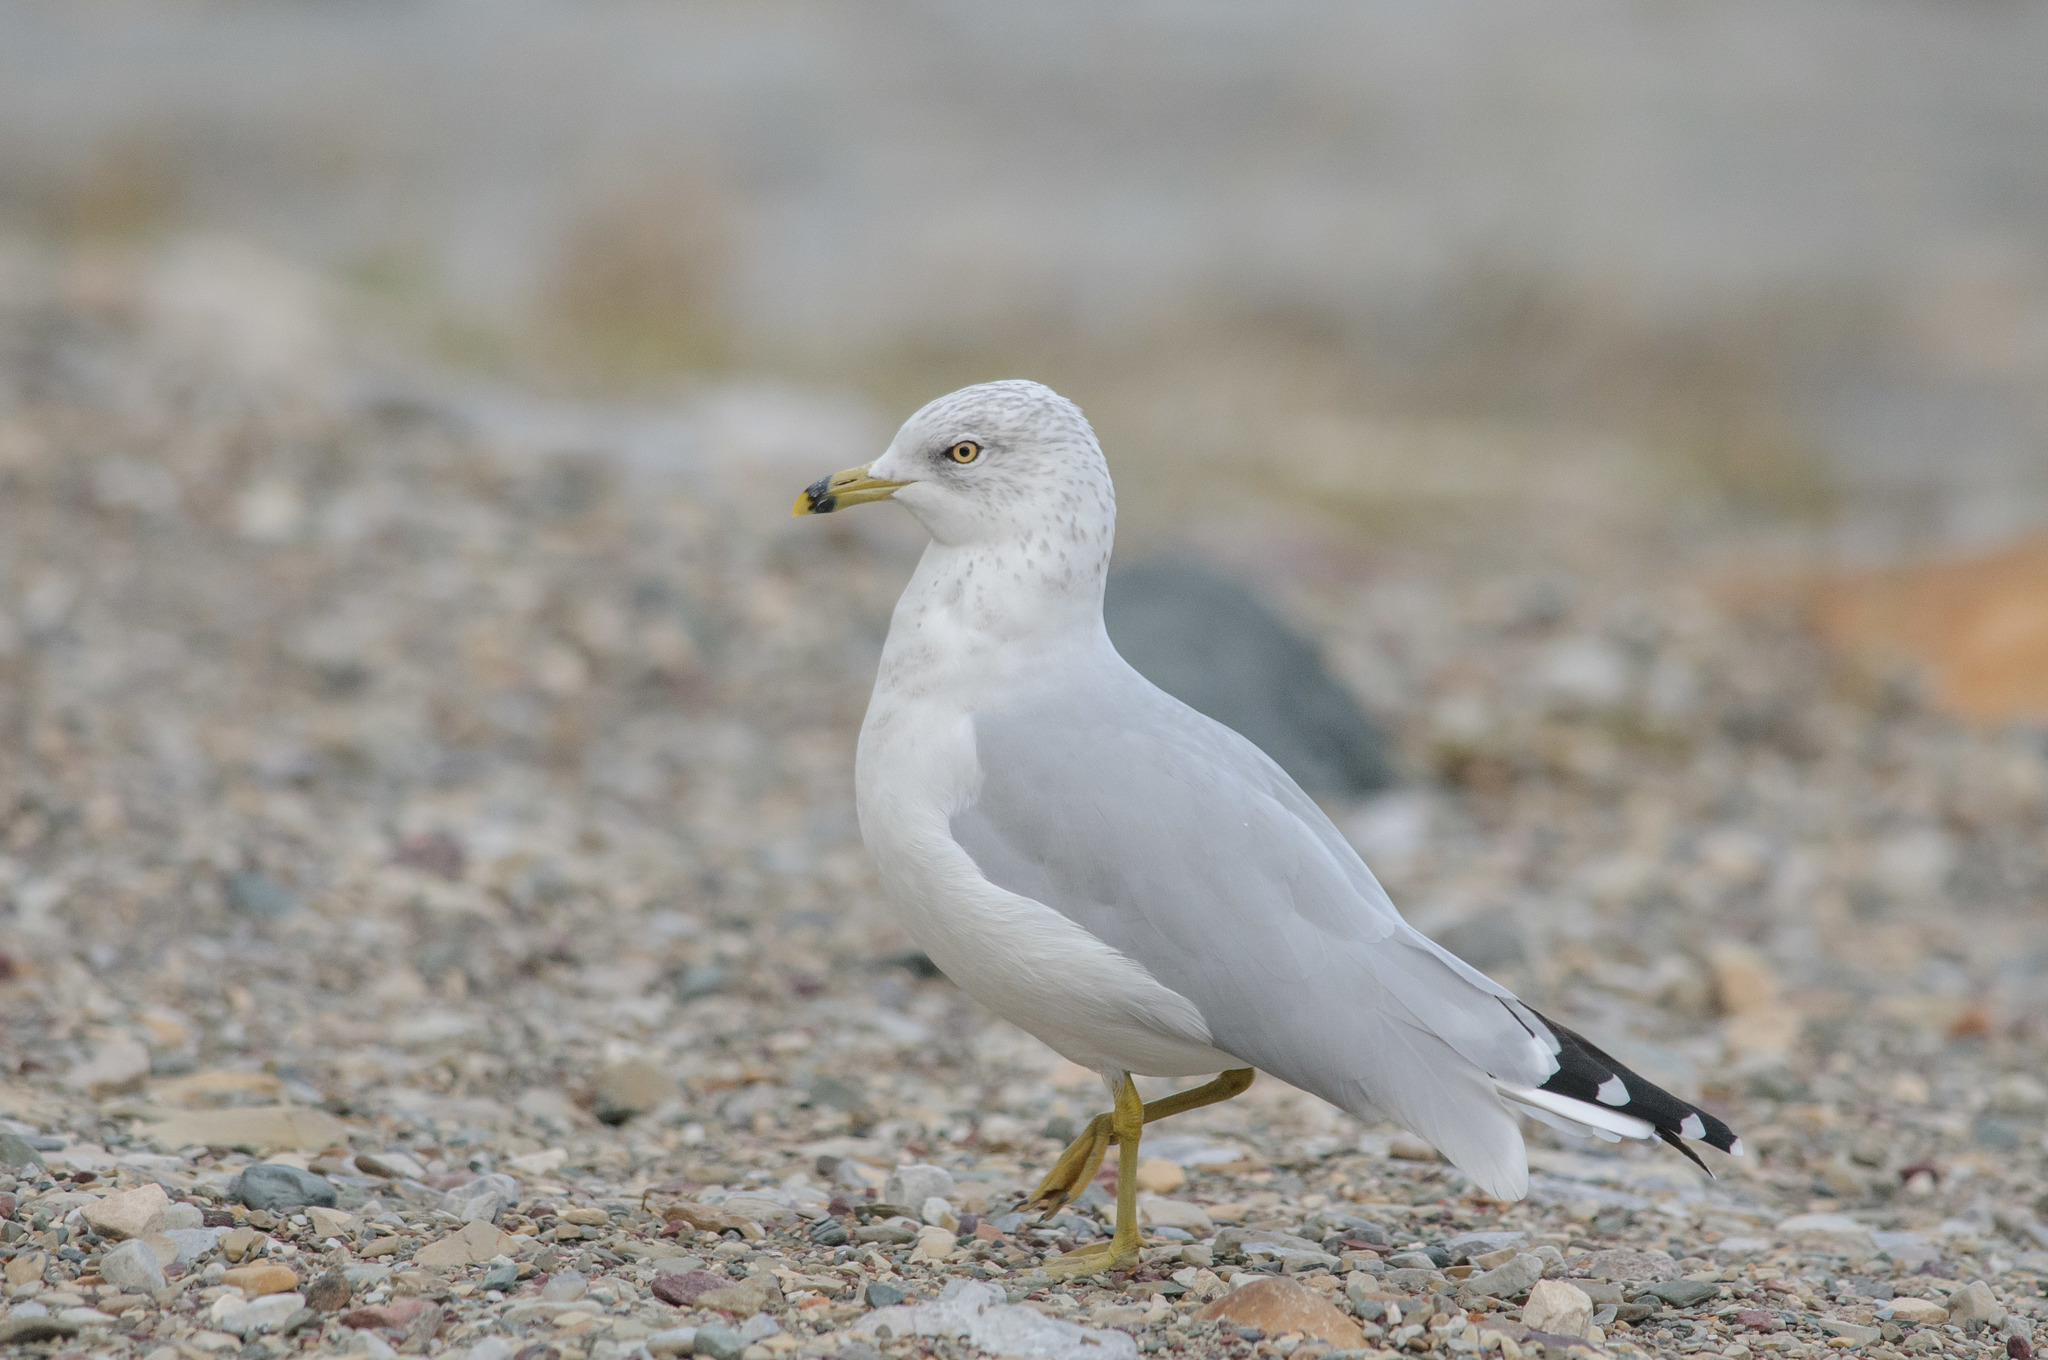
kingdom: Animalia
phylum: Chordata
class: Aves
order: Charadriiformes
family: Laridae
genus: Larus
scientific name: Larus delawarensis
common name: Ring-billed gull
